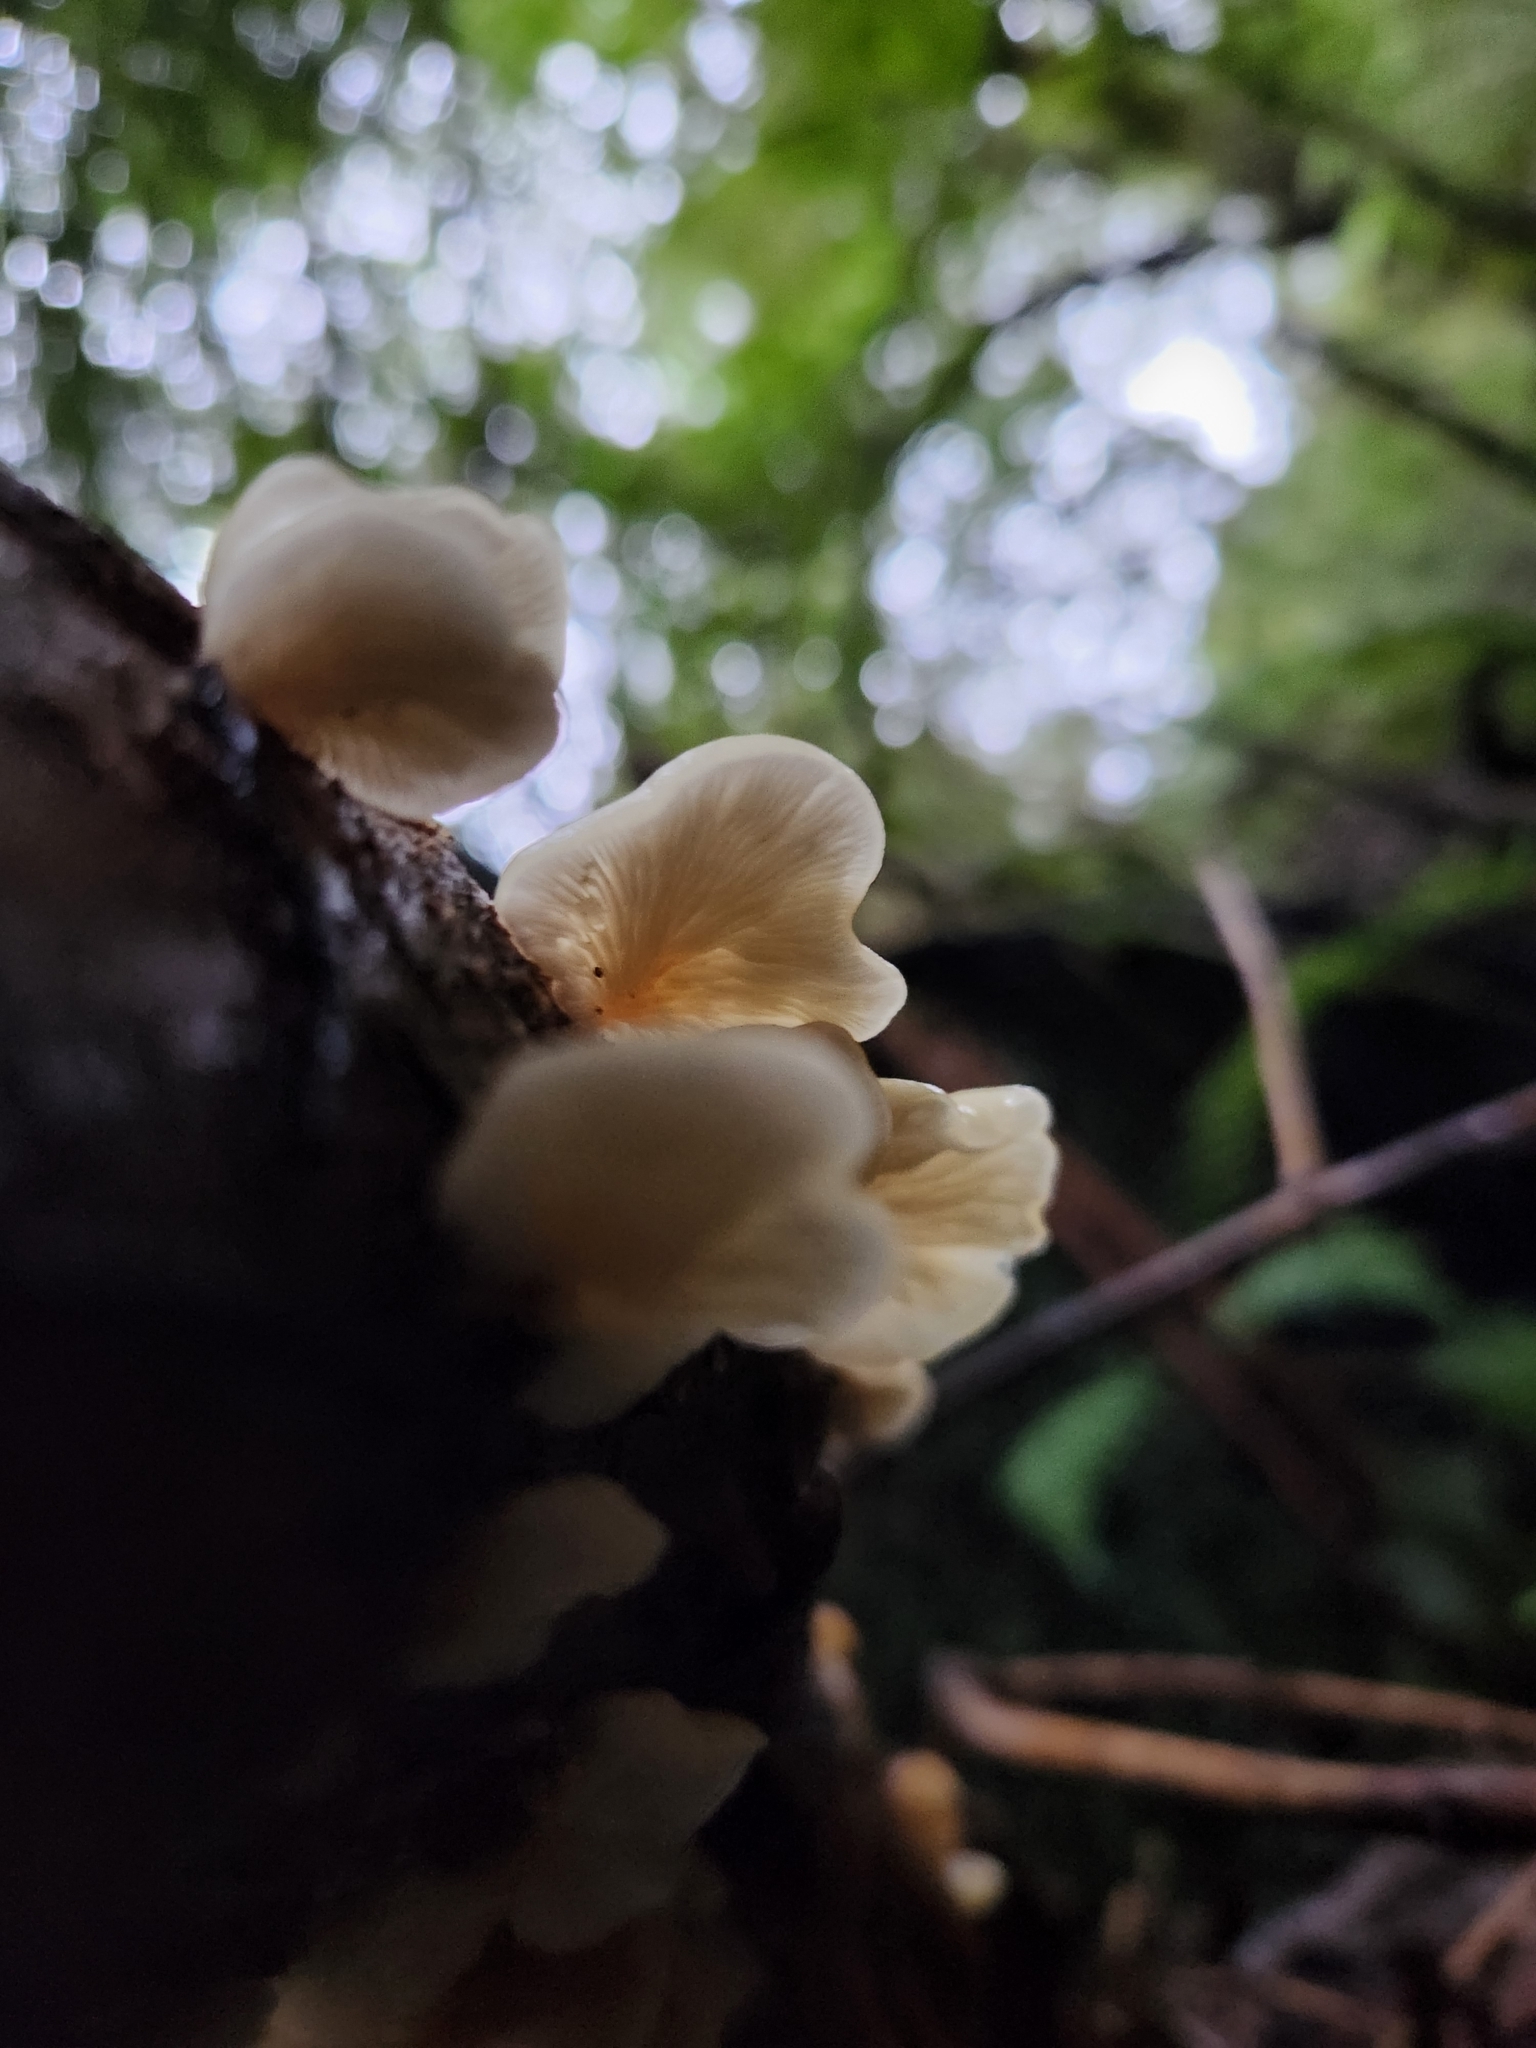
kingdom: Fungi
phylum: Basidiomycota
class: Agaricomycetes
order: Agaricales
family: Tricholomataceae
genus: Conchomyces
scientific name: Conchomyces bursiformis
